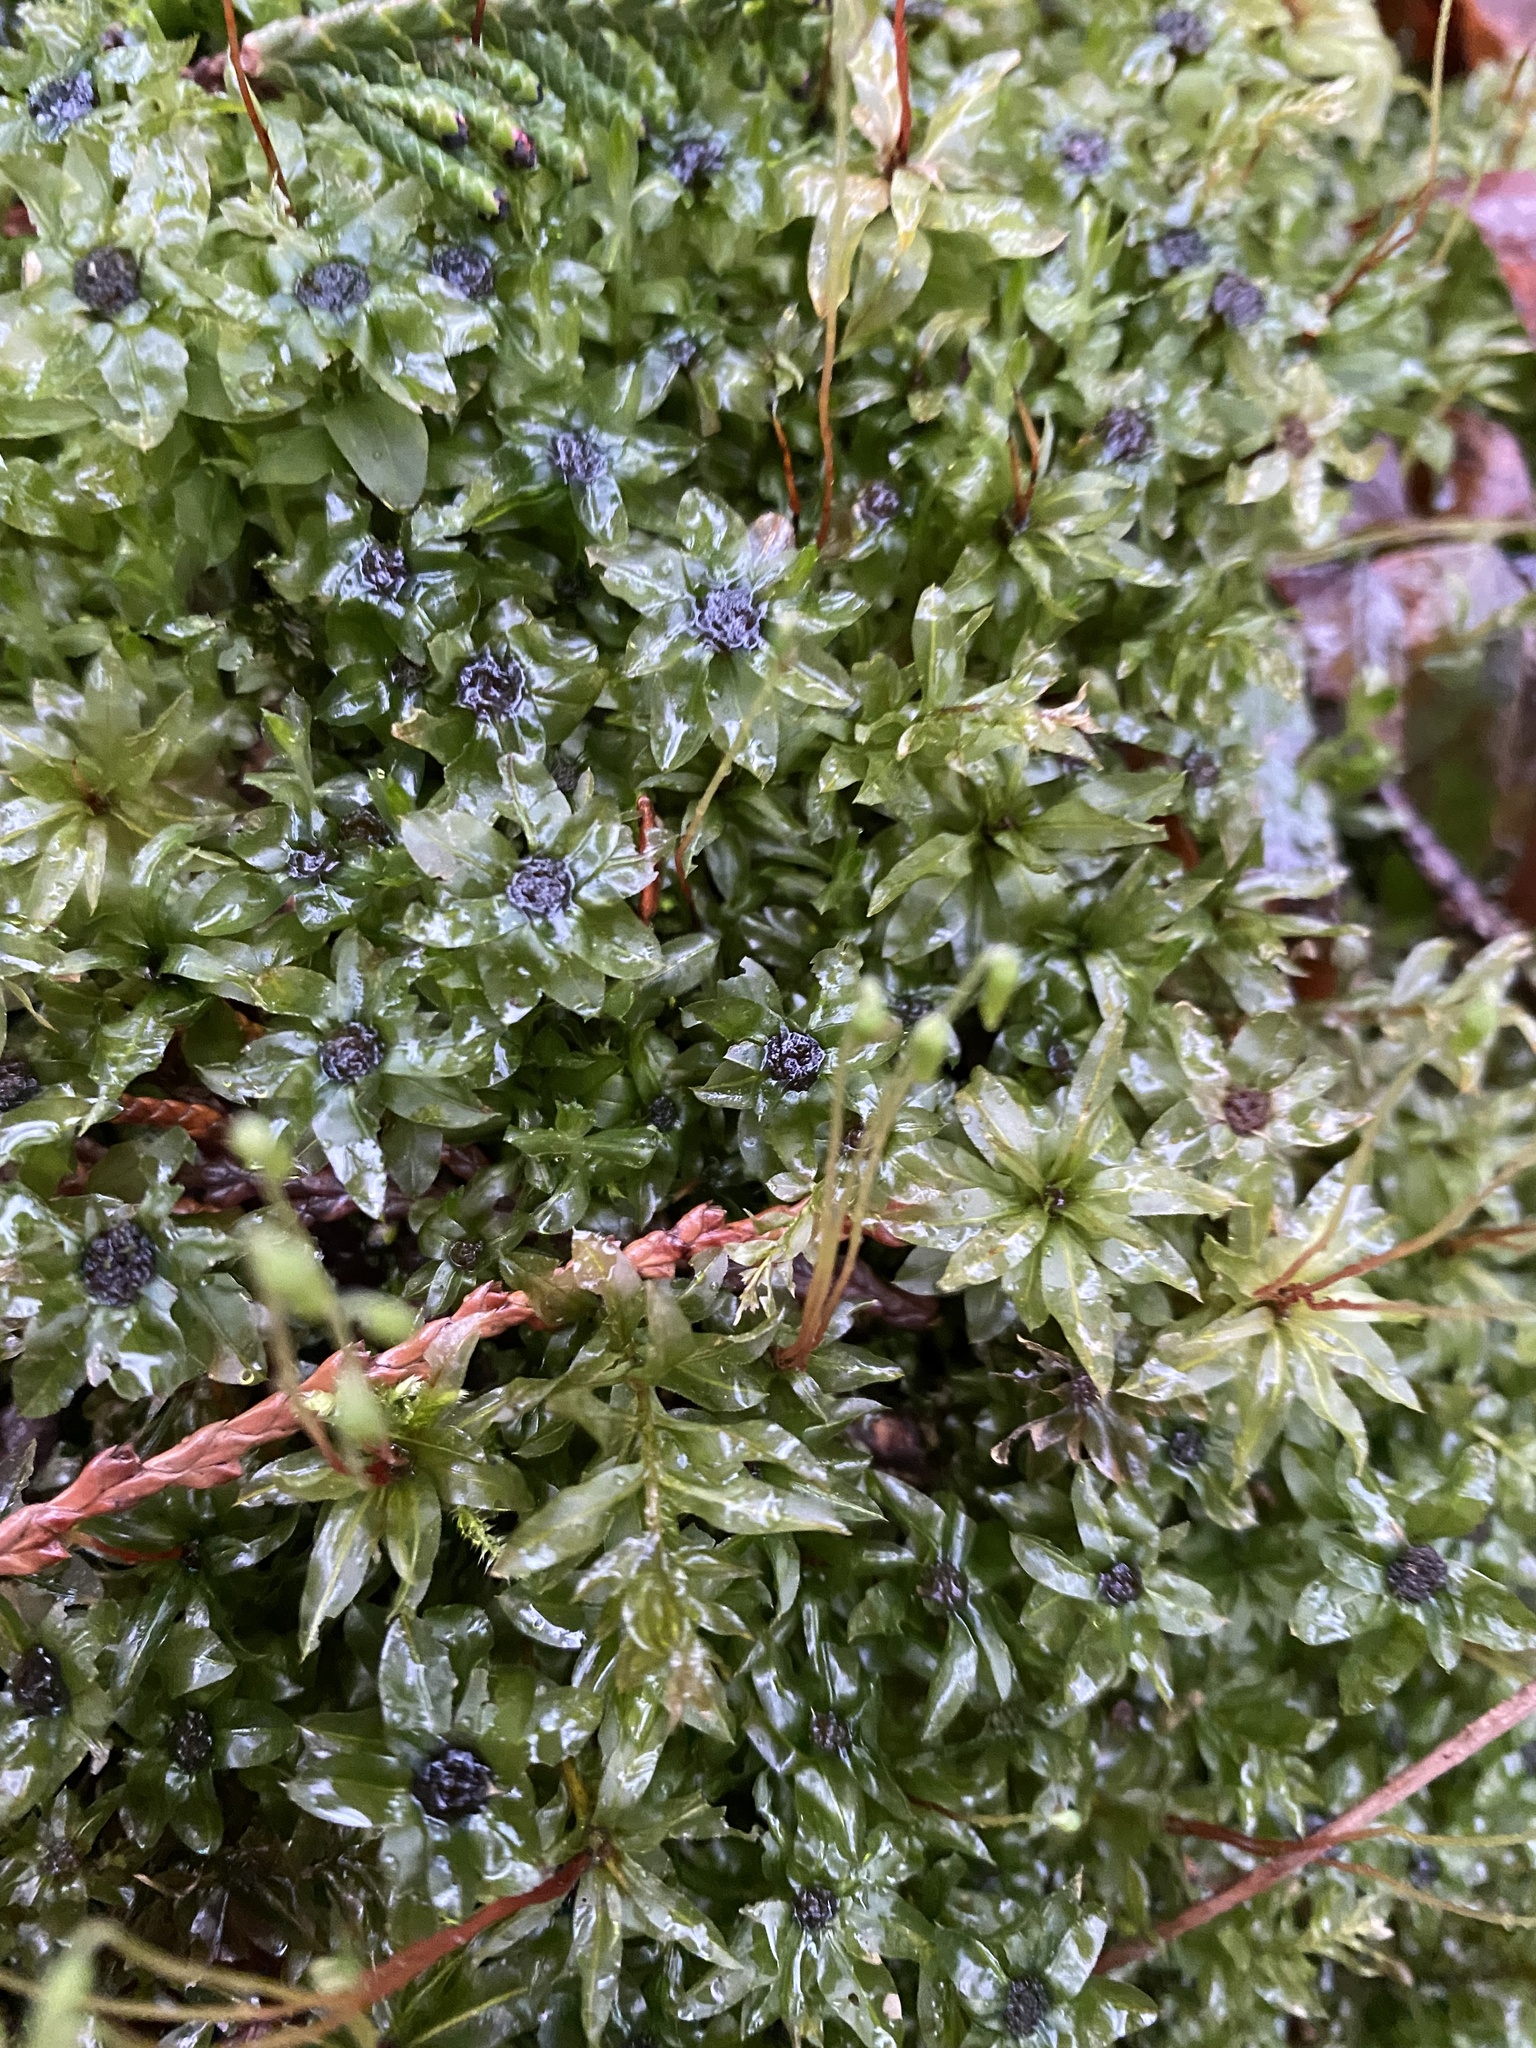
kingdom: Plantae
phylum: Bryophyta
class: Bryopsida
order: Bryales
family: Mniaceae
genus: Plagiomnium
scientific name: Plagiomnium insigne
